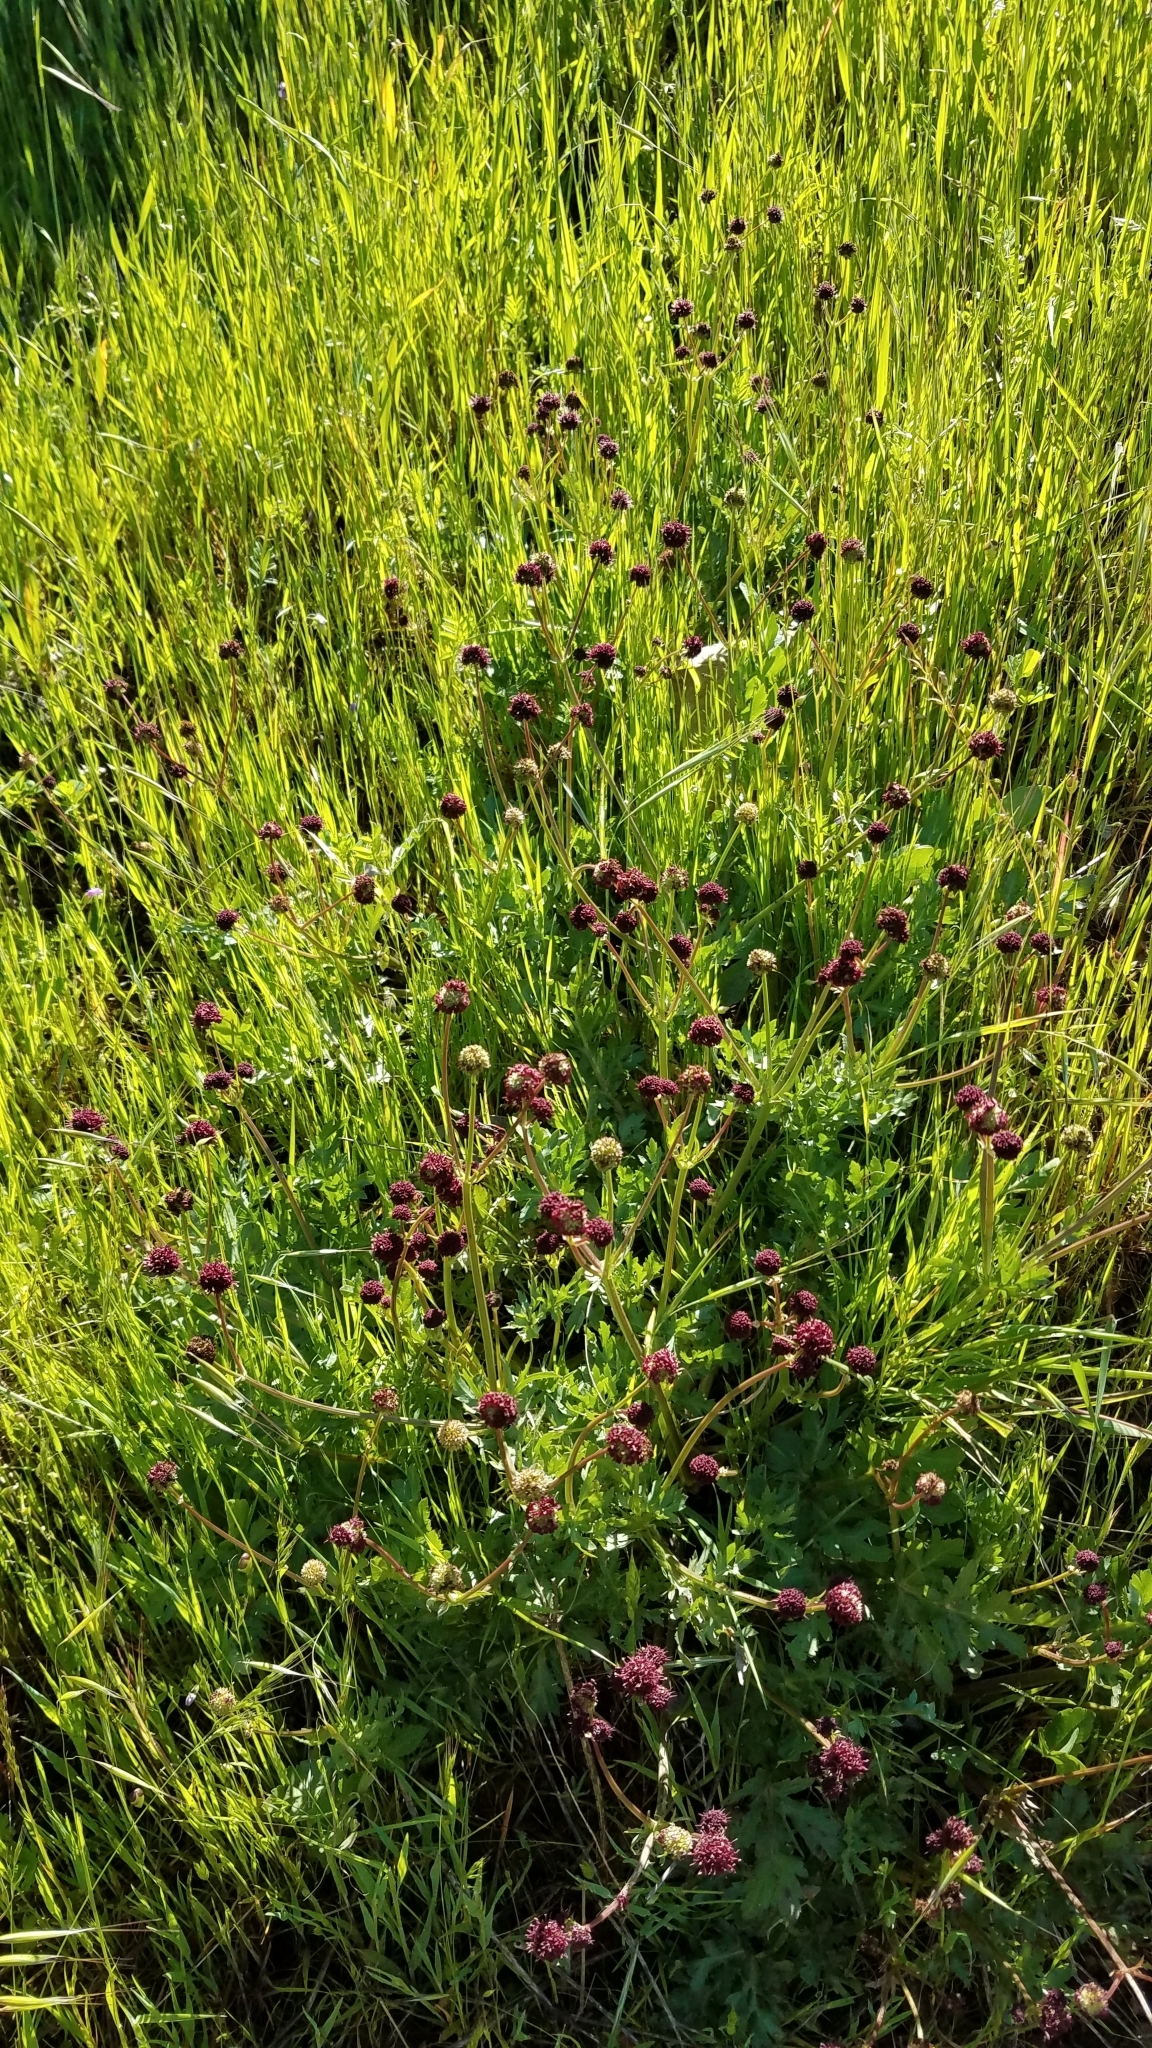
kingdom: Plantae
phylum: Tracheophyta
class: Magnoliopsida
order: Apiales
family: Apiaceae
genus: Sanicula
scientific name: Sanicula bipinnatifida
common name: Shoe-buttons
